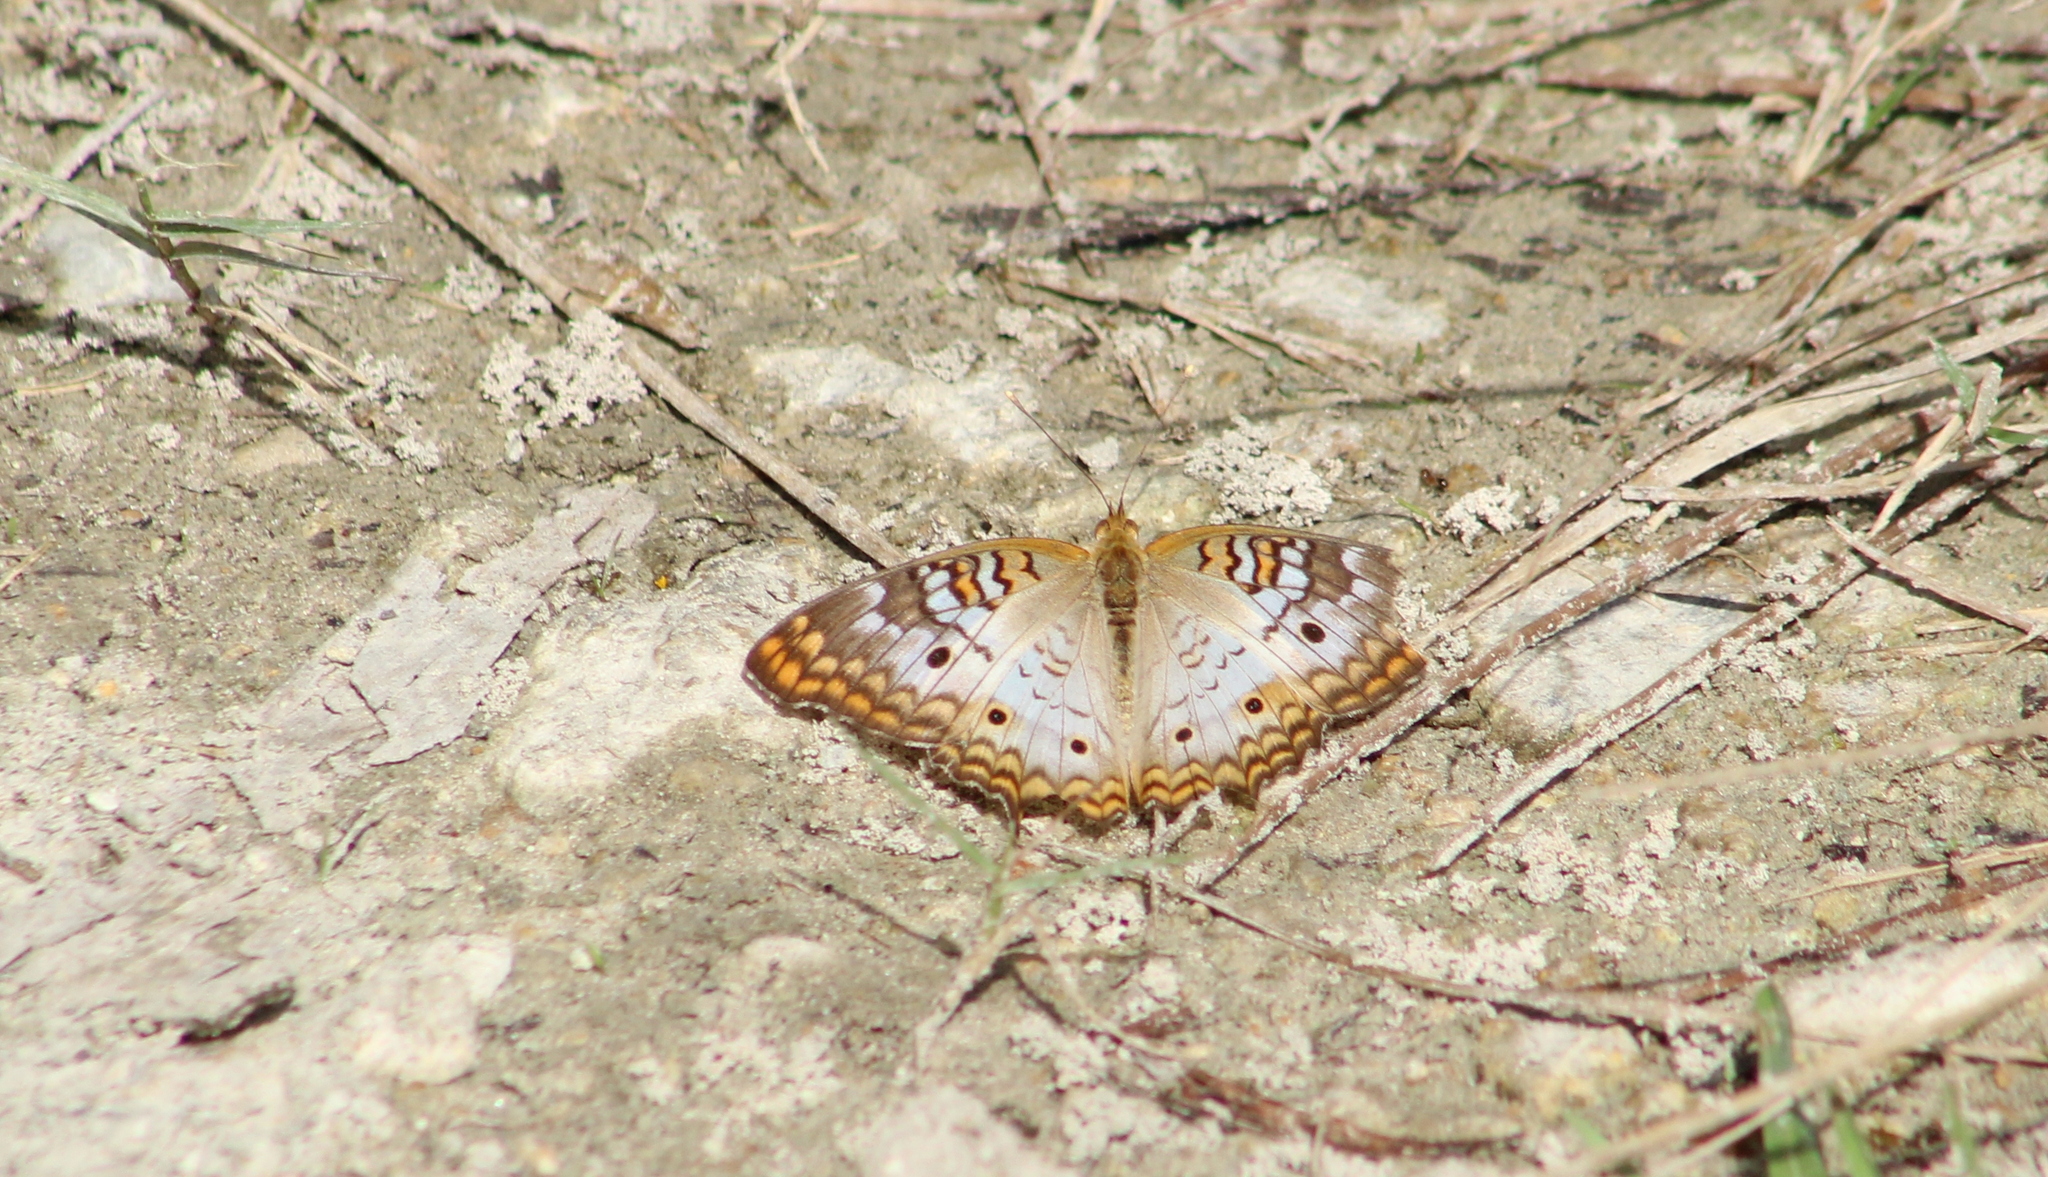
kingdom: Animalia
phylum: Arthropoda
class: Insecta
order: Lepidoptera
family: Nymphalidae
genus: Anartia
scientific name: Anartia jatrophae
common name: White peacock
